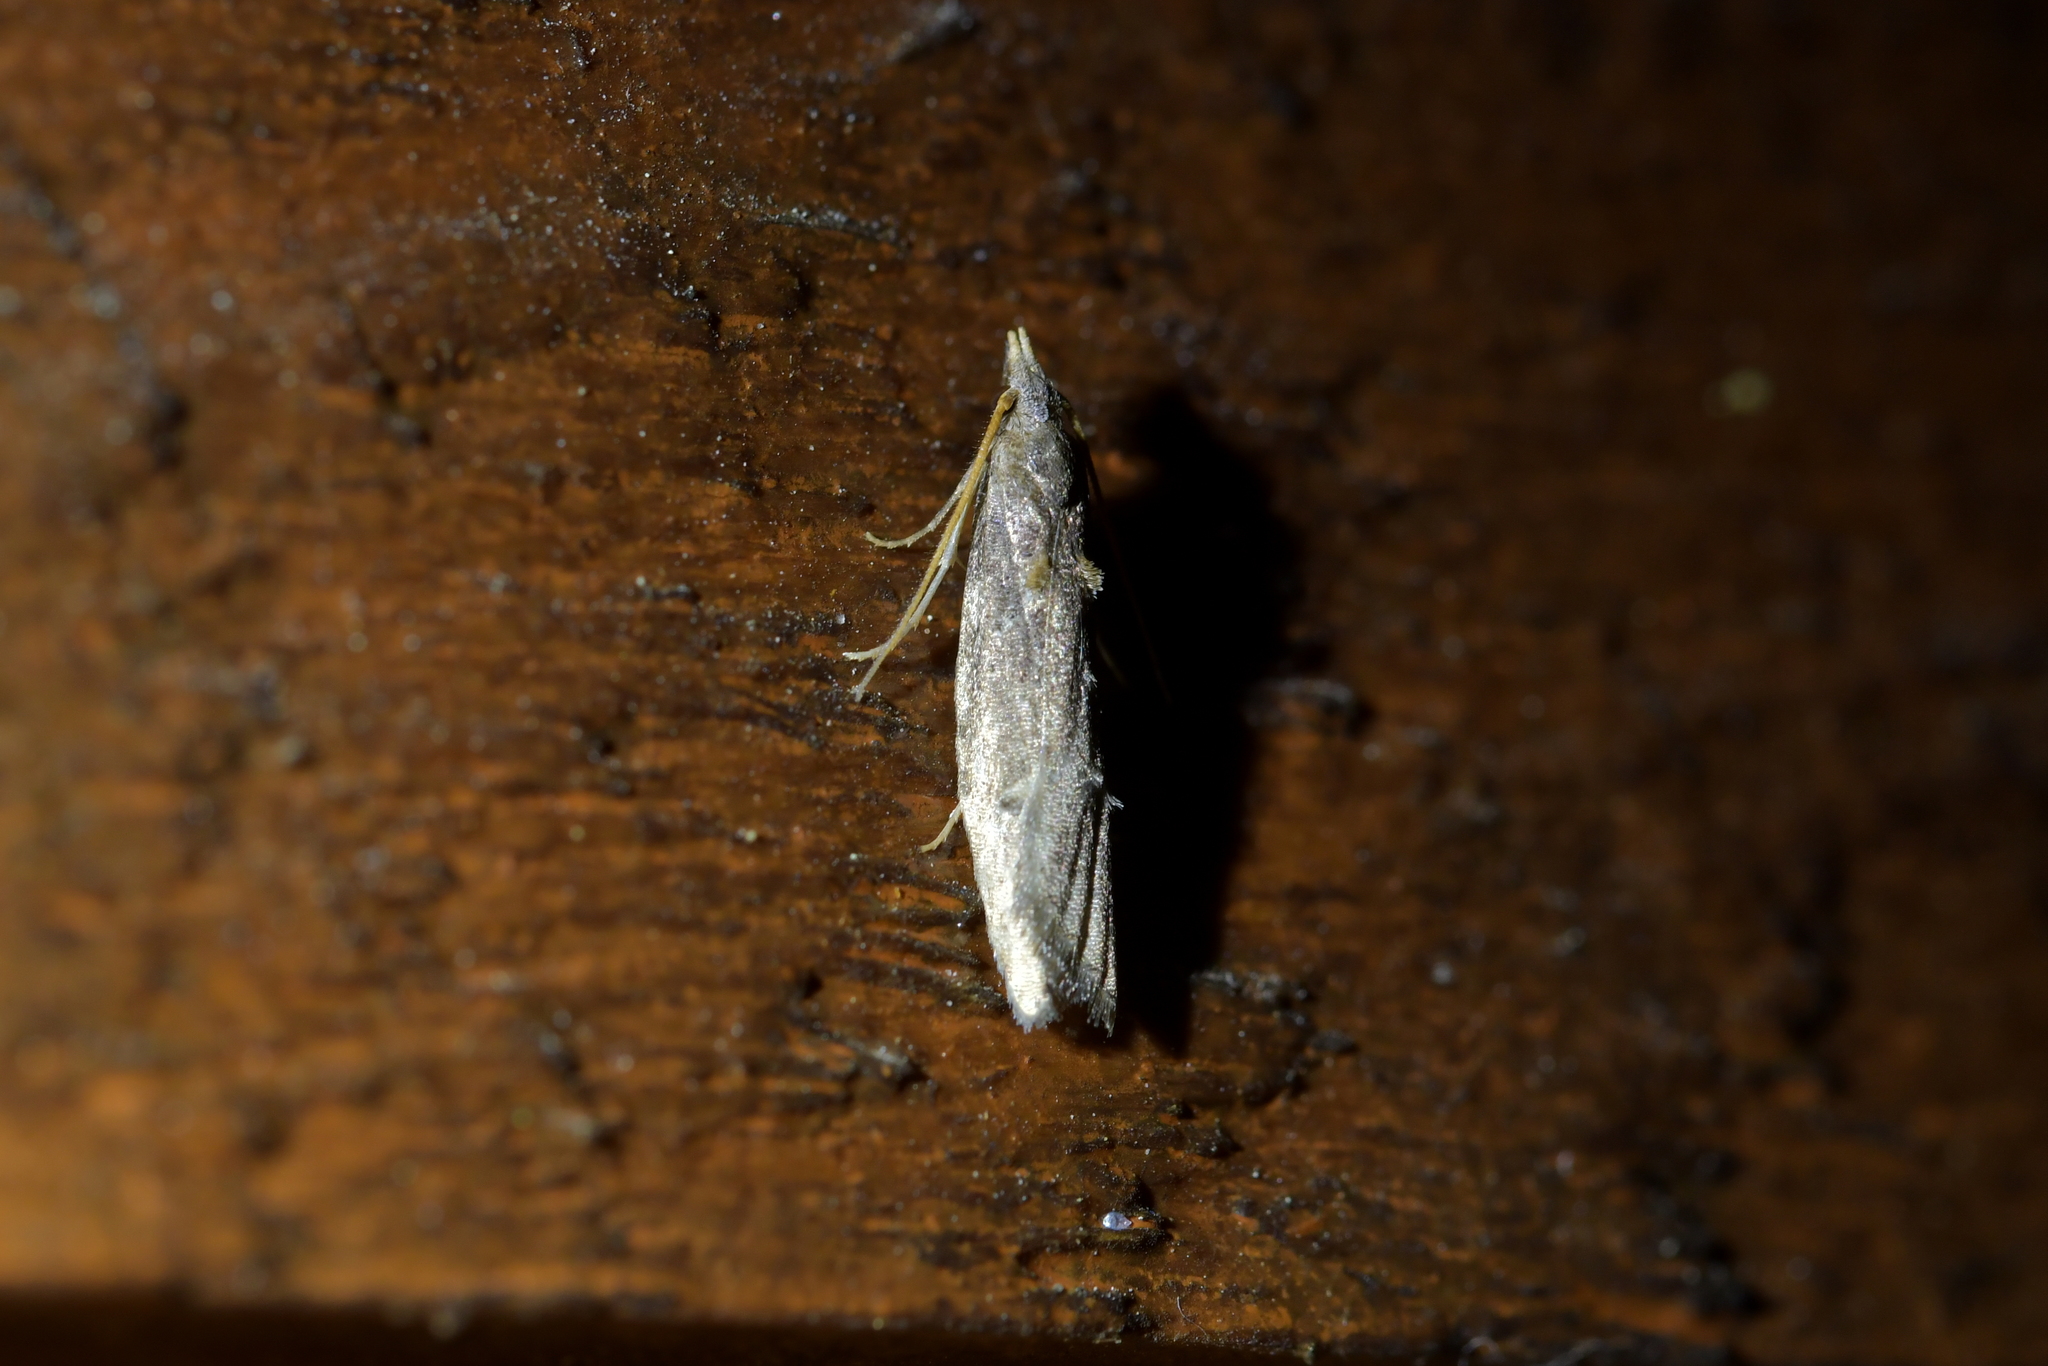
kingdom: Animalia
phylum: Arthropoda
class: Insecta
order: Lepidoptera
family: Carposinidae
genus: Carposina
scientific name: Carposina rubophaga
